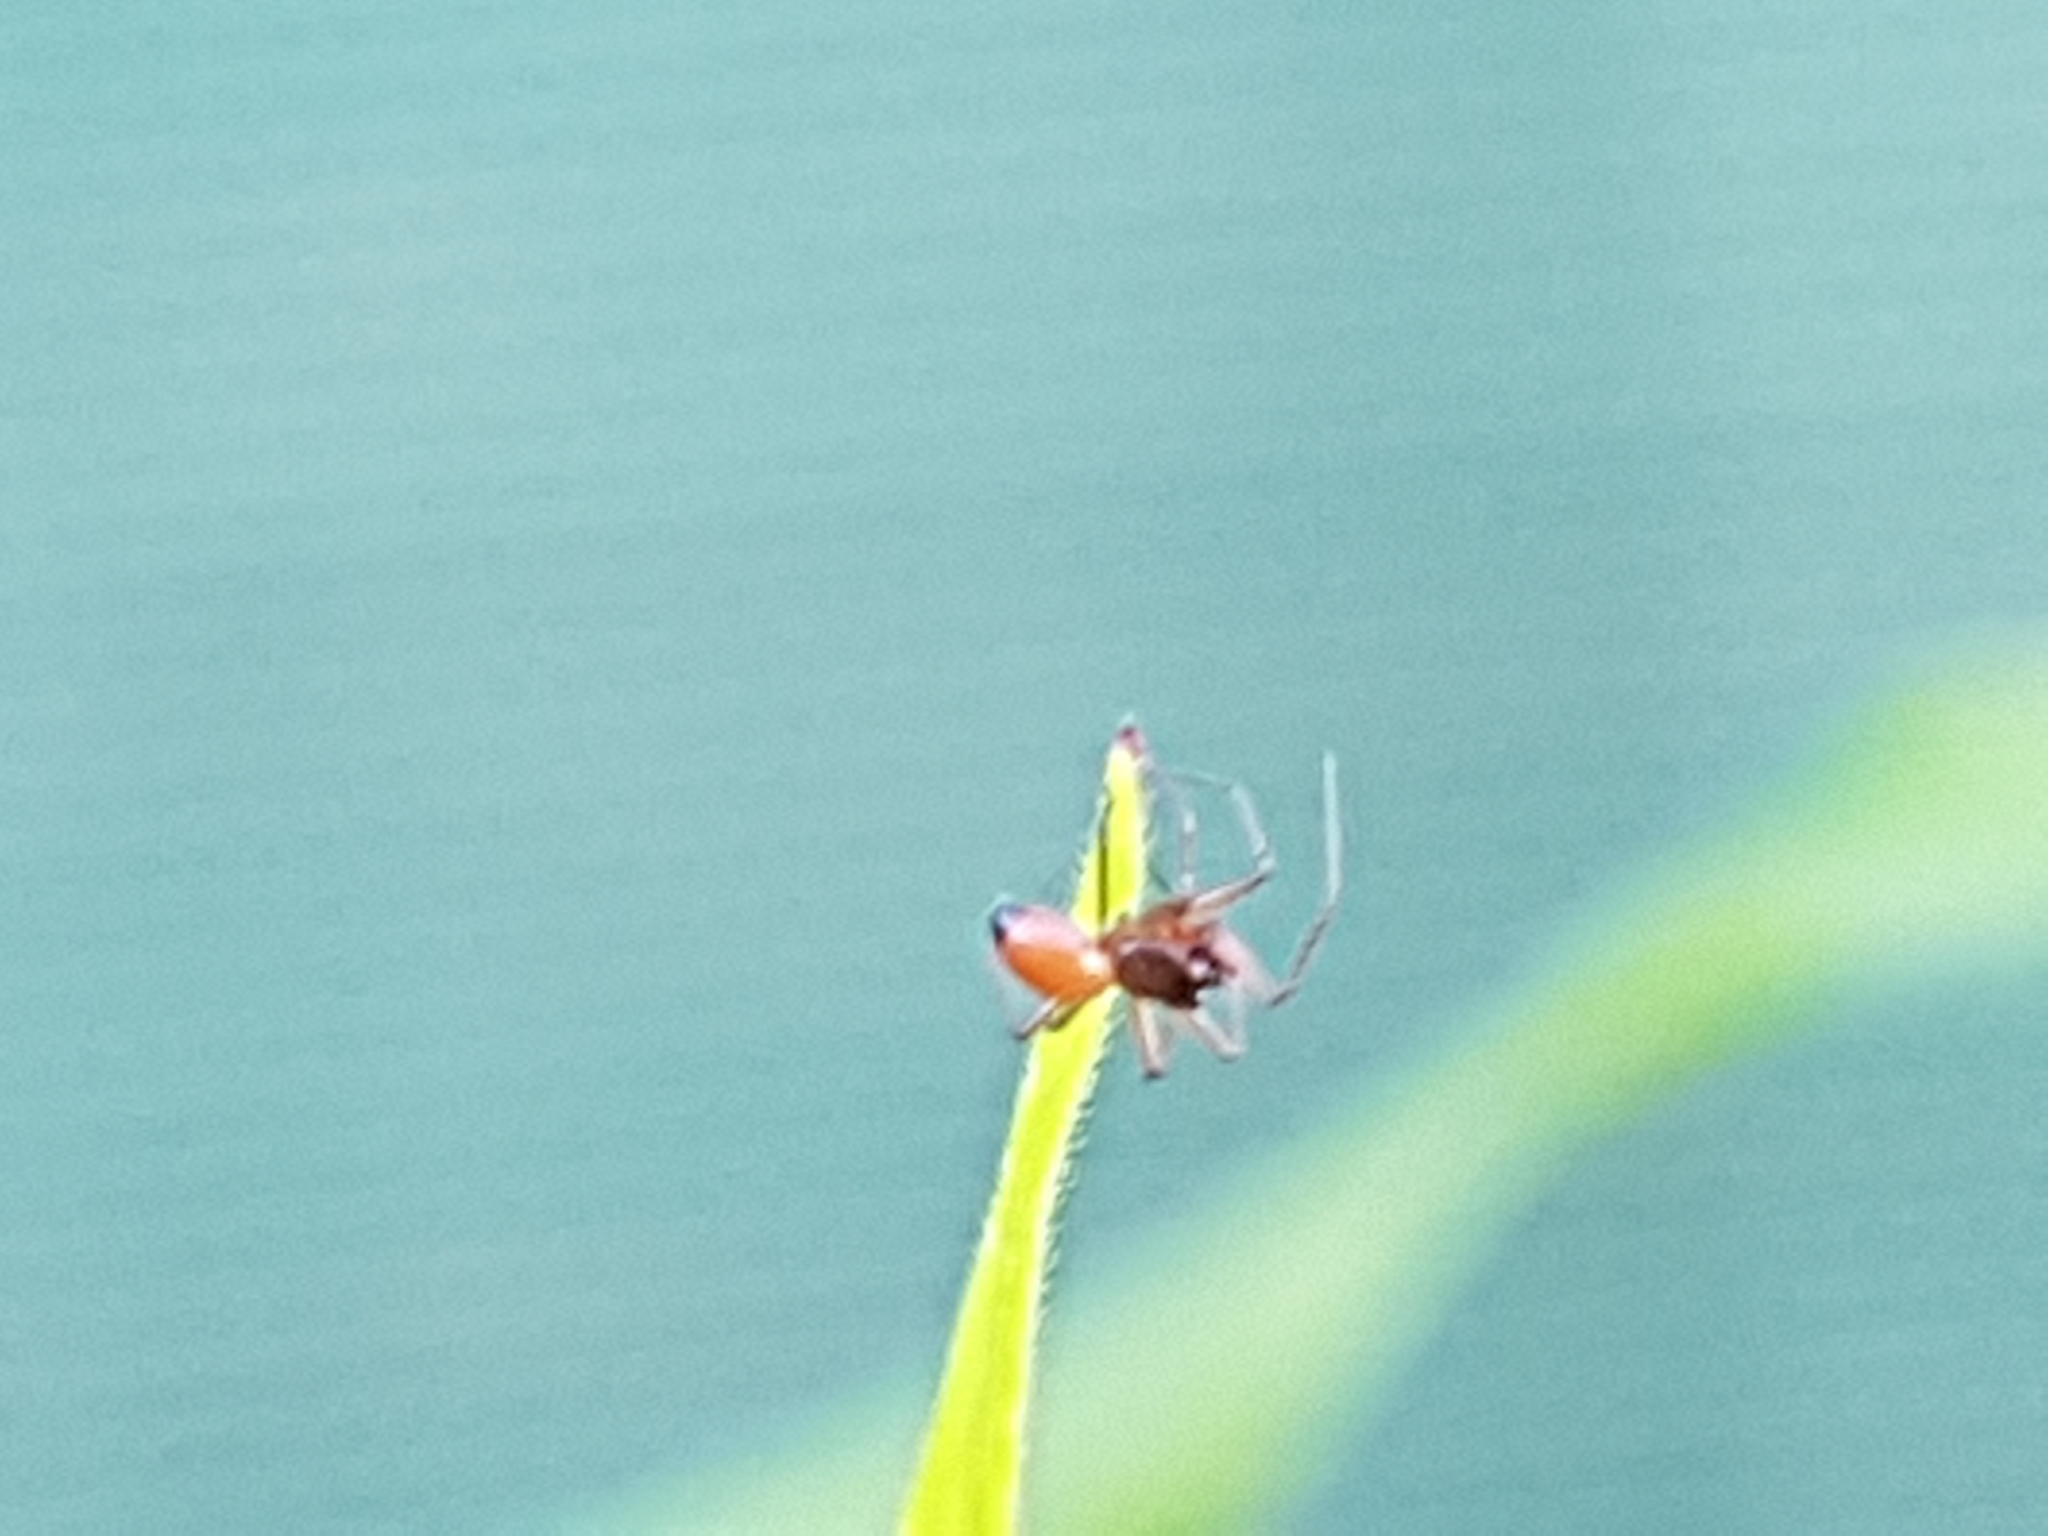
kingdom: Animalia
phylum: Arthropoda
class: Arachnida
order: Araneae
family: Linyphiidae
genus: Ostearius
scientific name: Ostearius melanopygius
